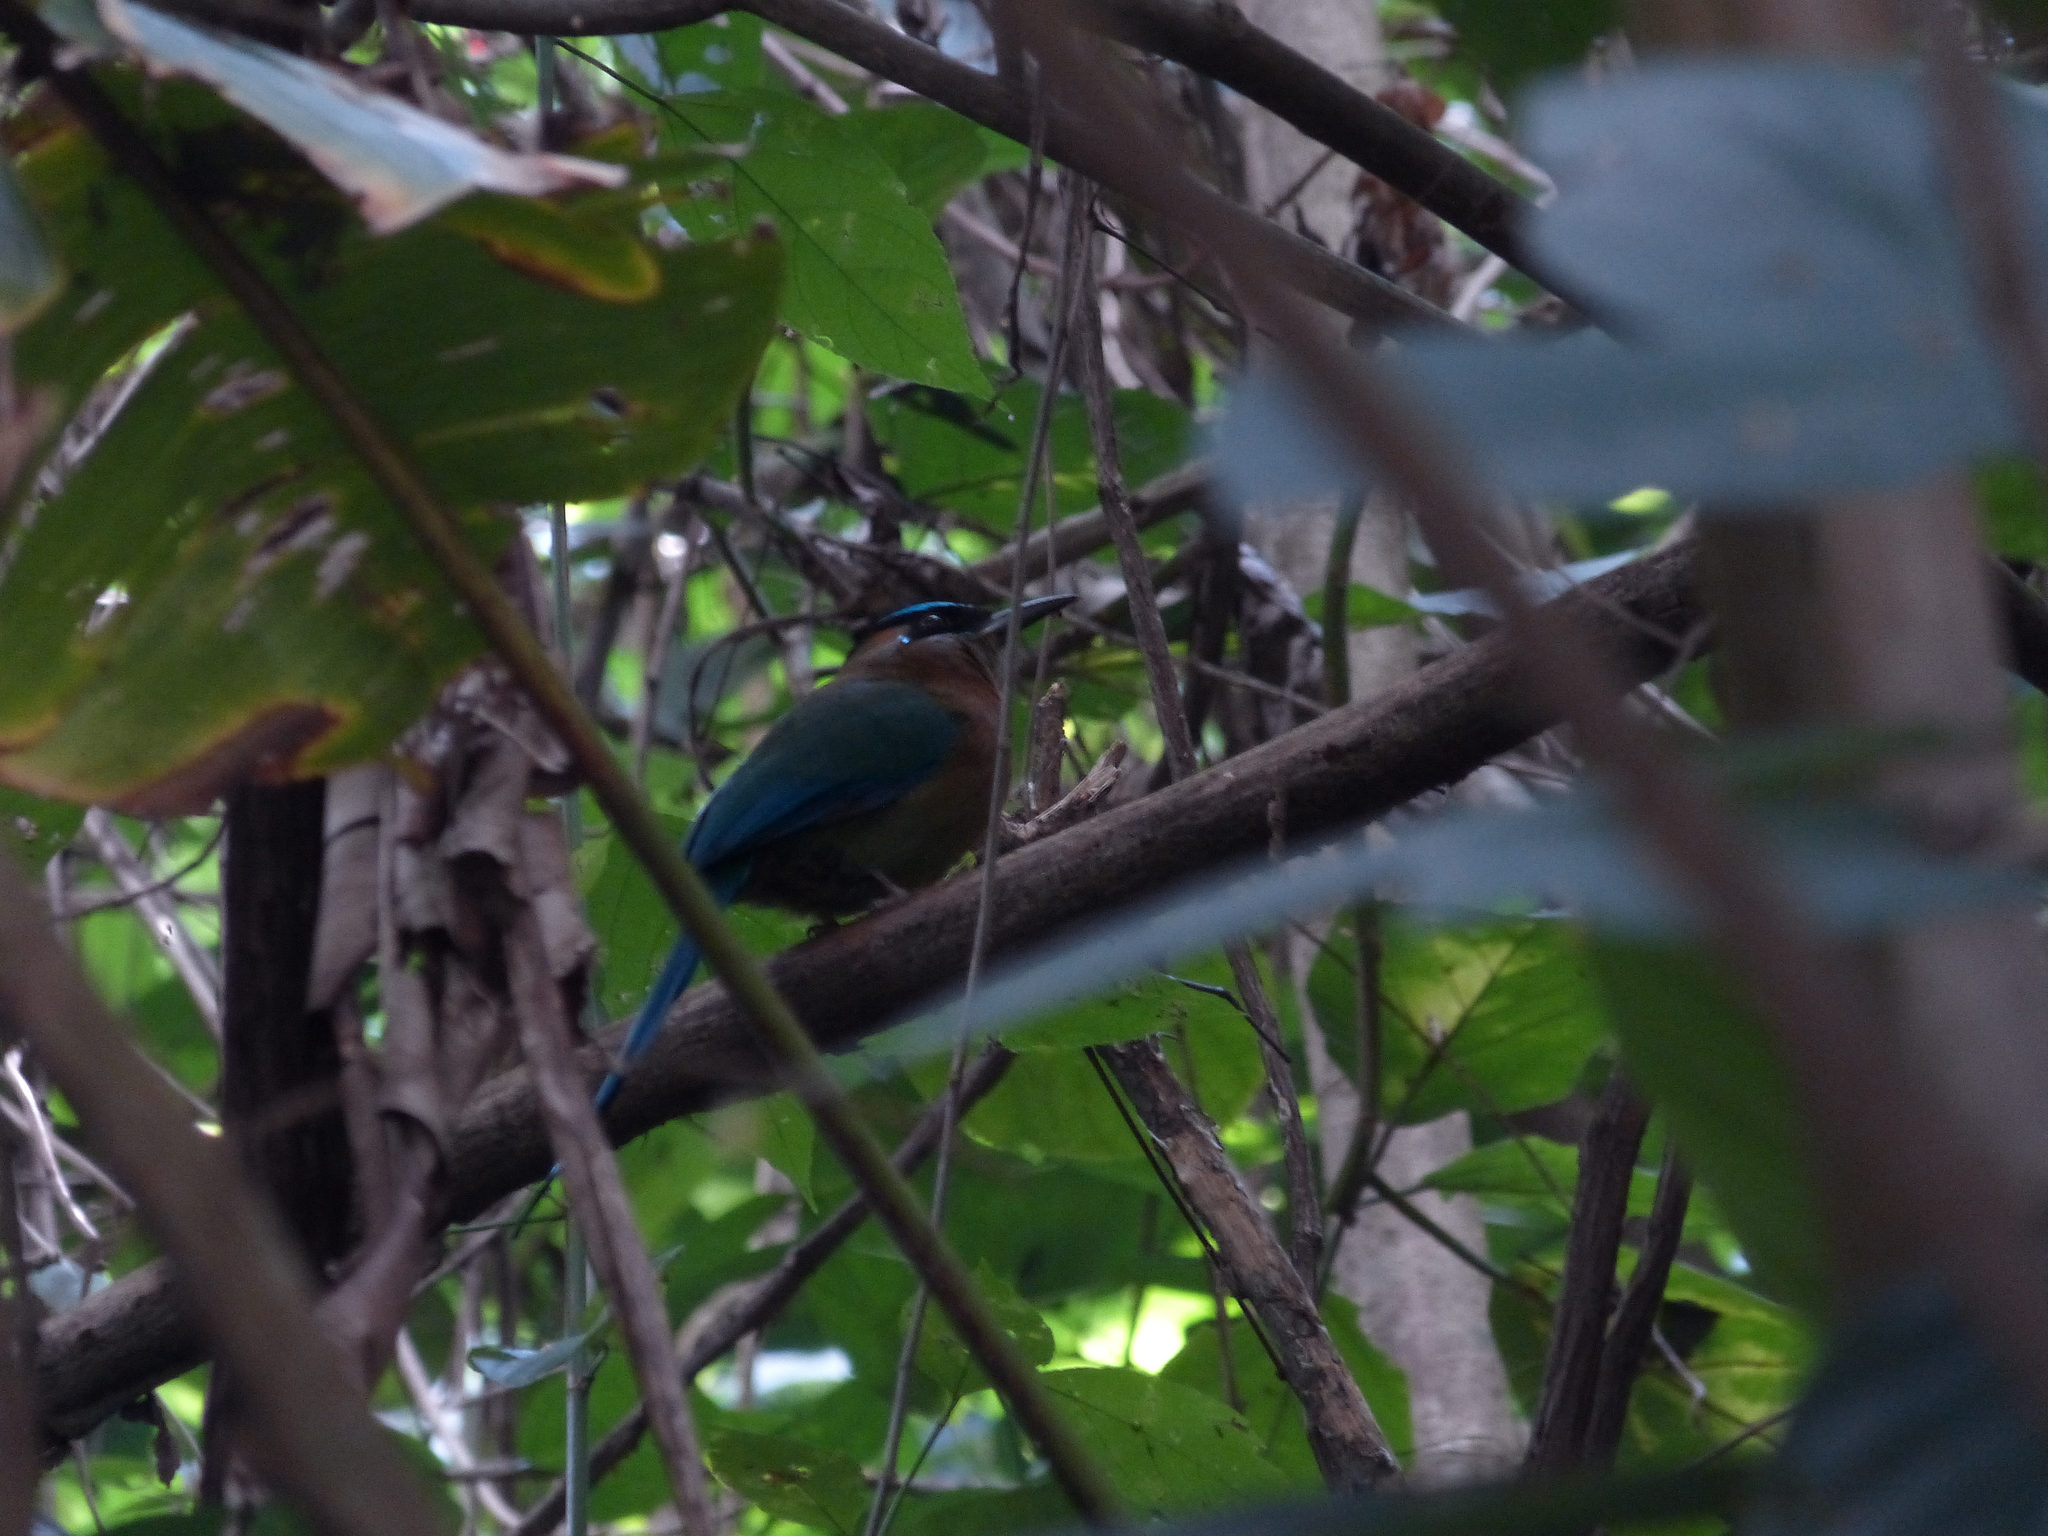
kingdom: Animalia
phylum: Chordata
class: Aves
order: Coraciiformes
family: Momotidae
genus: Momotus
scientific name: Momotus lessonii
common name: Lesson's motmot
